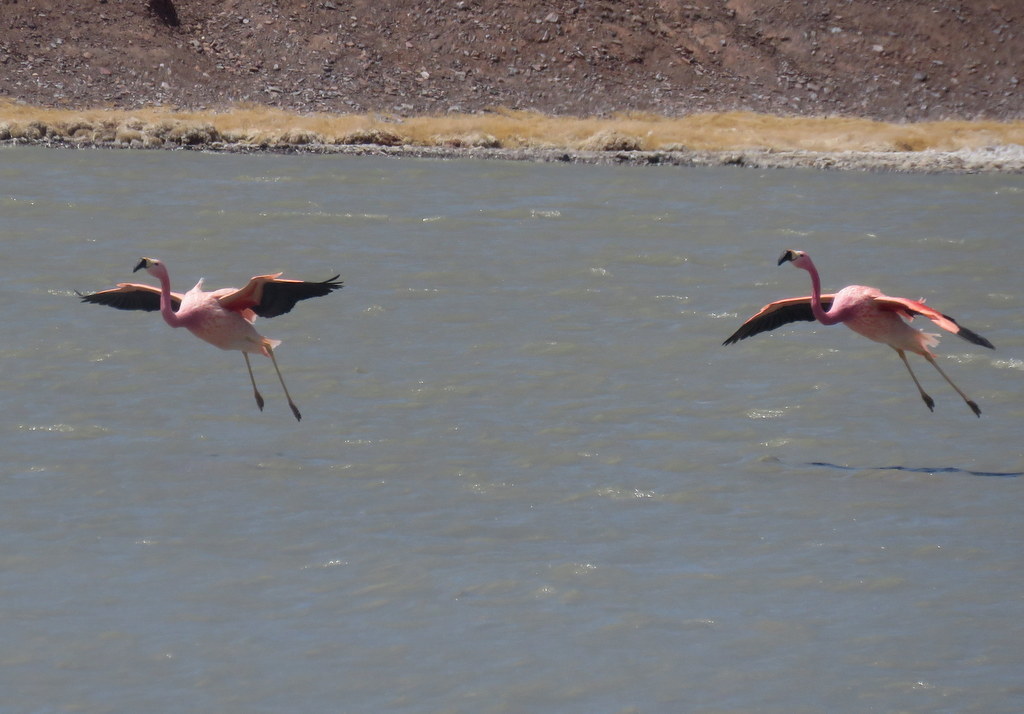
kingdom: Animalia
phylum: Chordata
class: Aves
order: Phoenicopteriformes
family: Phoenicopteridae
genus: Phoenicoparrus
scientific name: Phoenicoparrus andinus
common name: Andean flamingo
